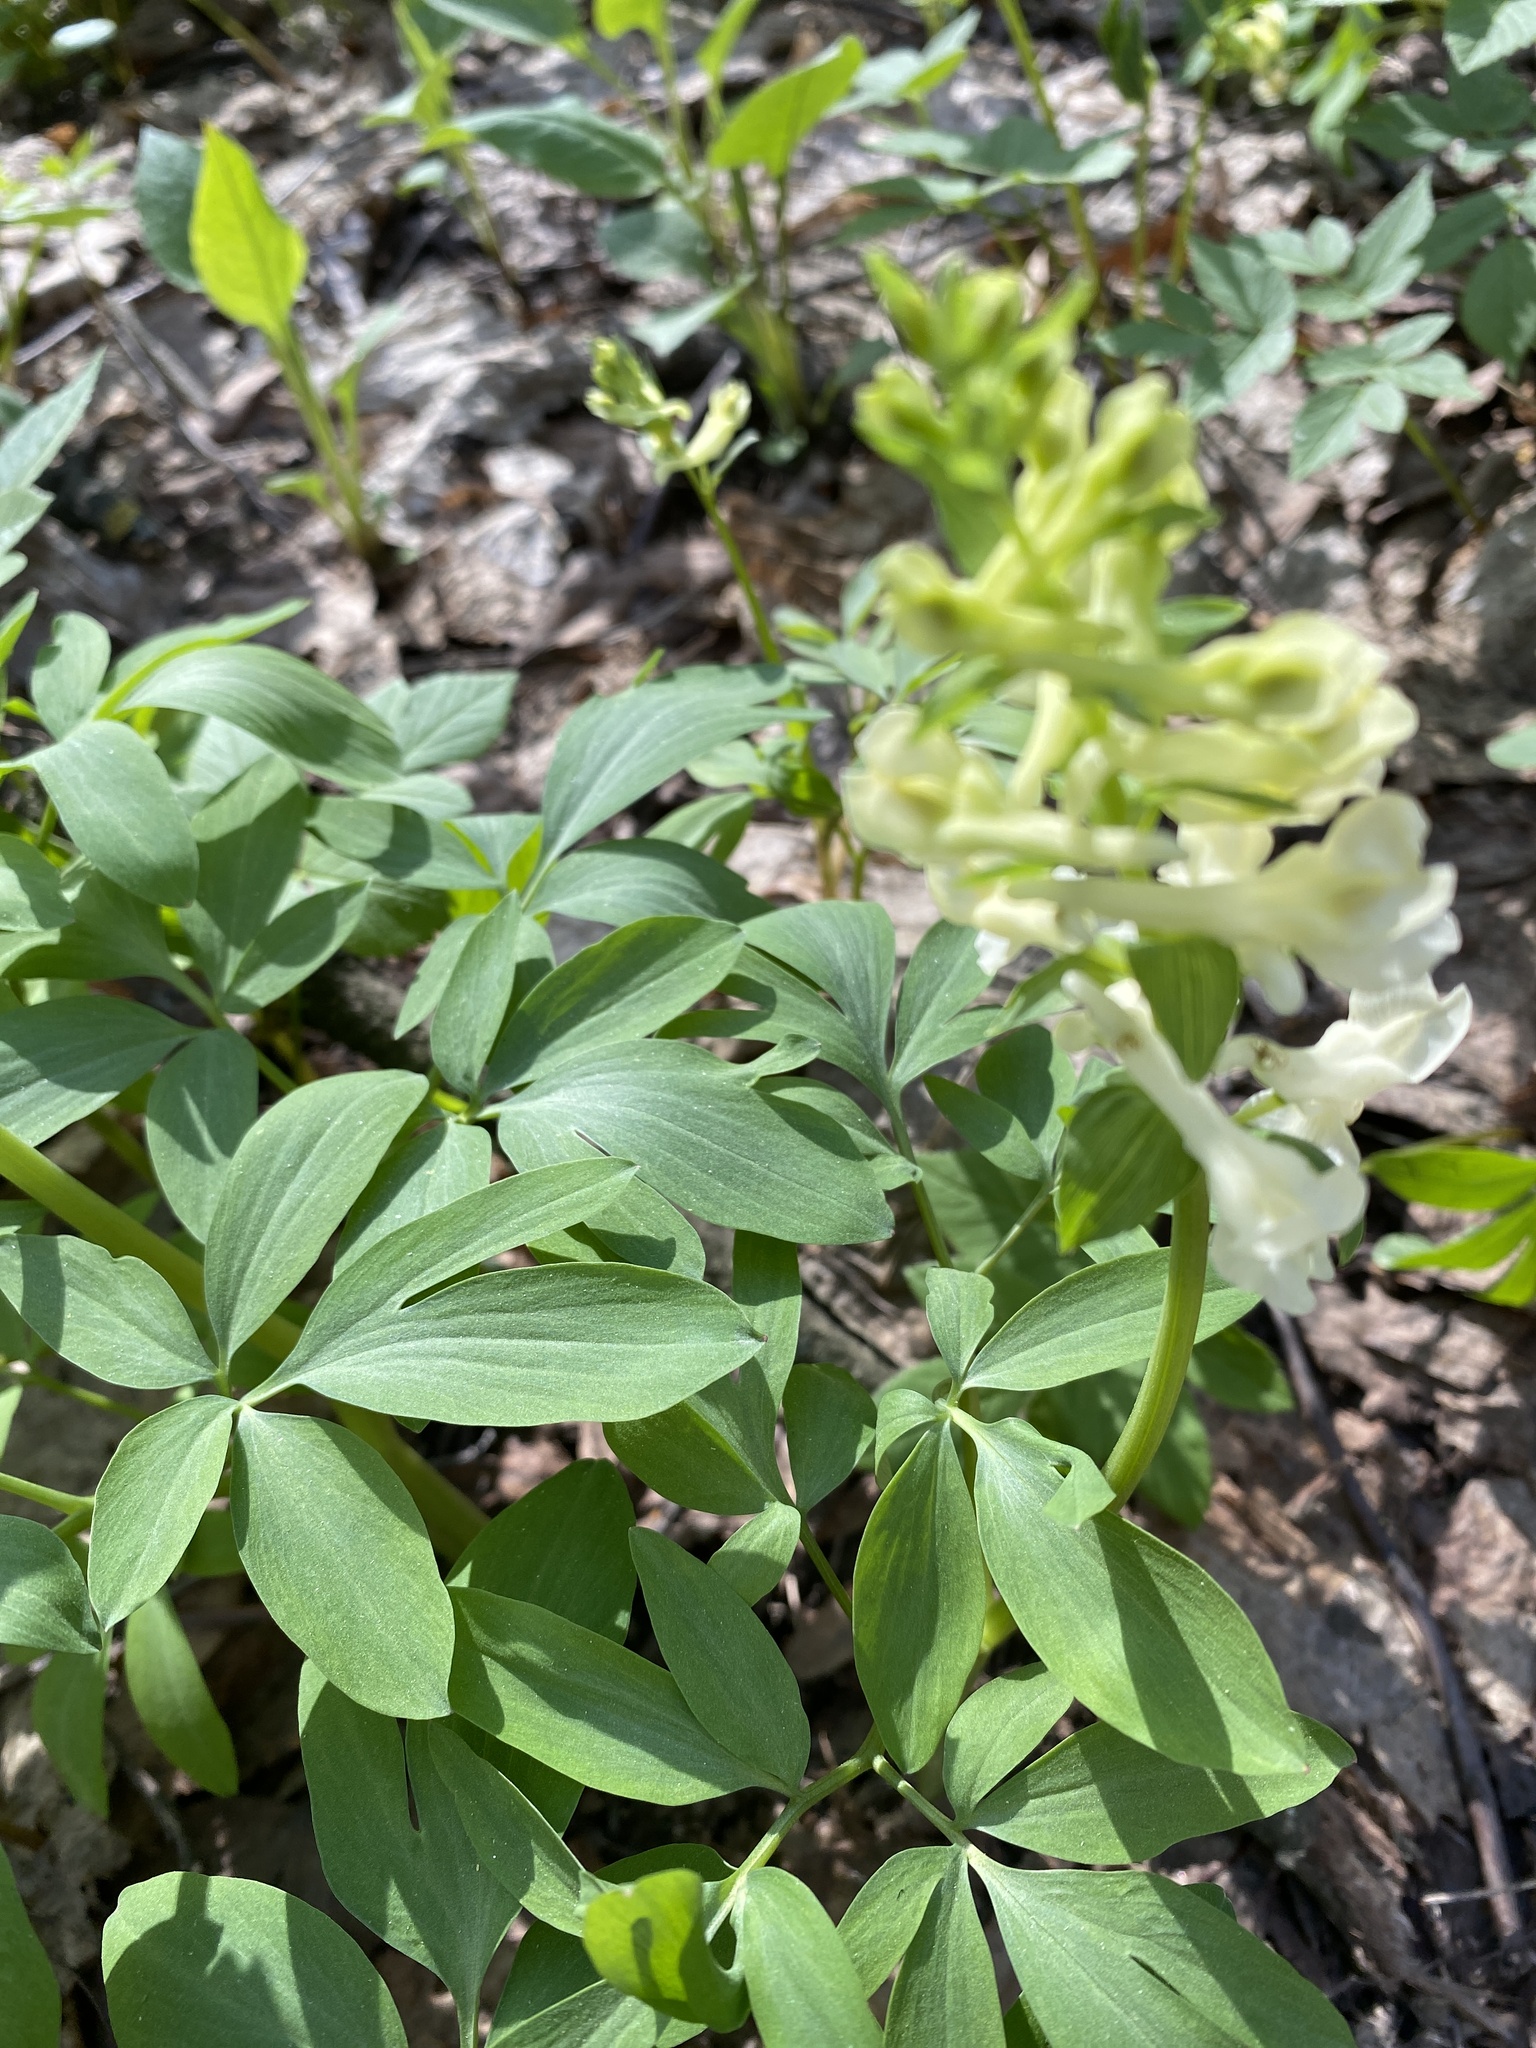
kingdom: Plantae
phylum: Tracheophyta
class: Magnoliopsida
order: Ranunculales
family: Papaveraceae
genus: Corydalis
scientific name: Corydalis cava
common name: Hollowroot
